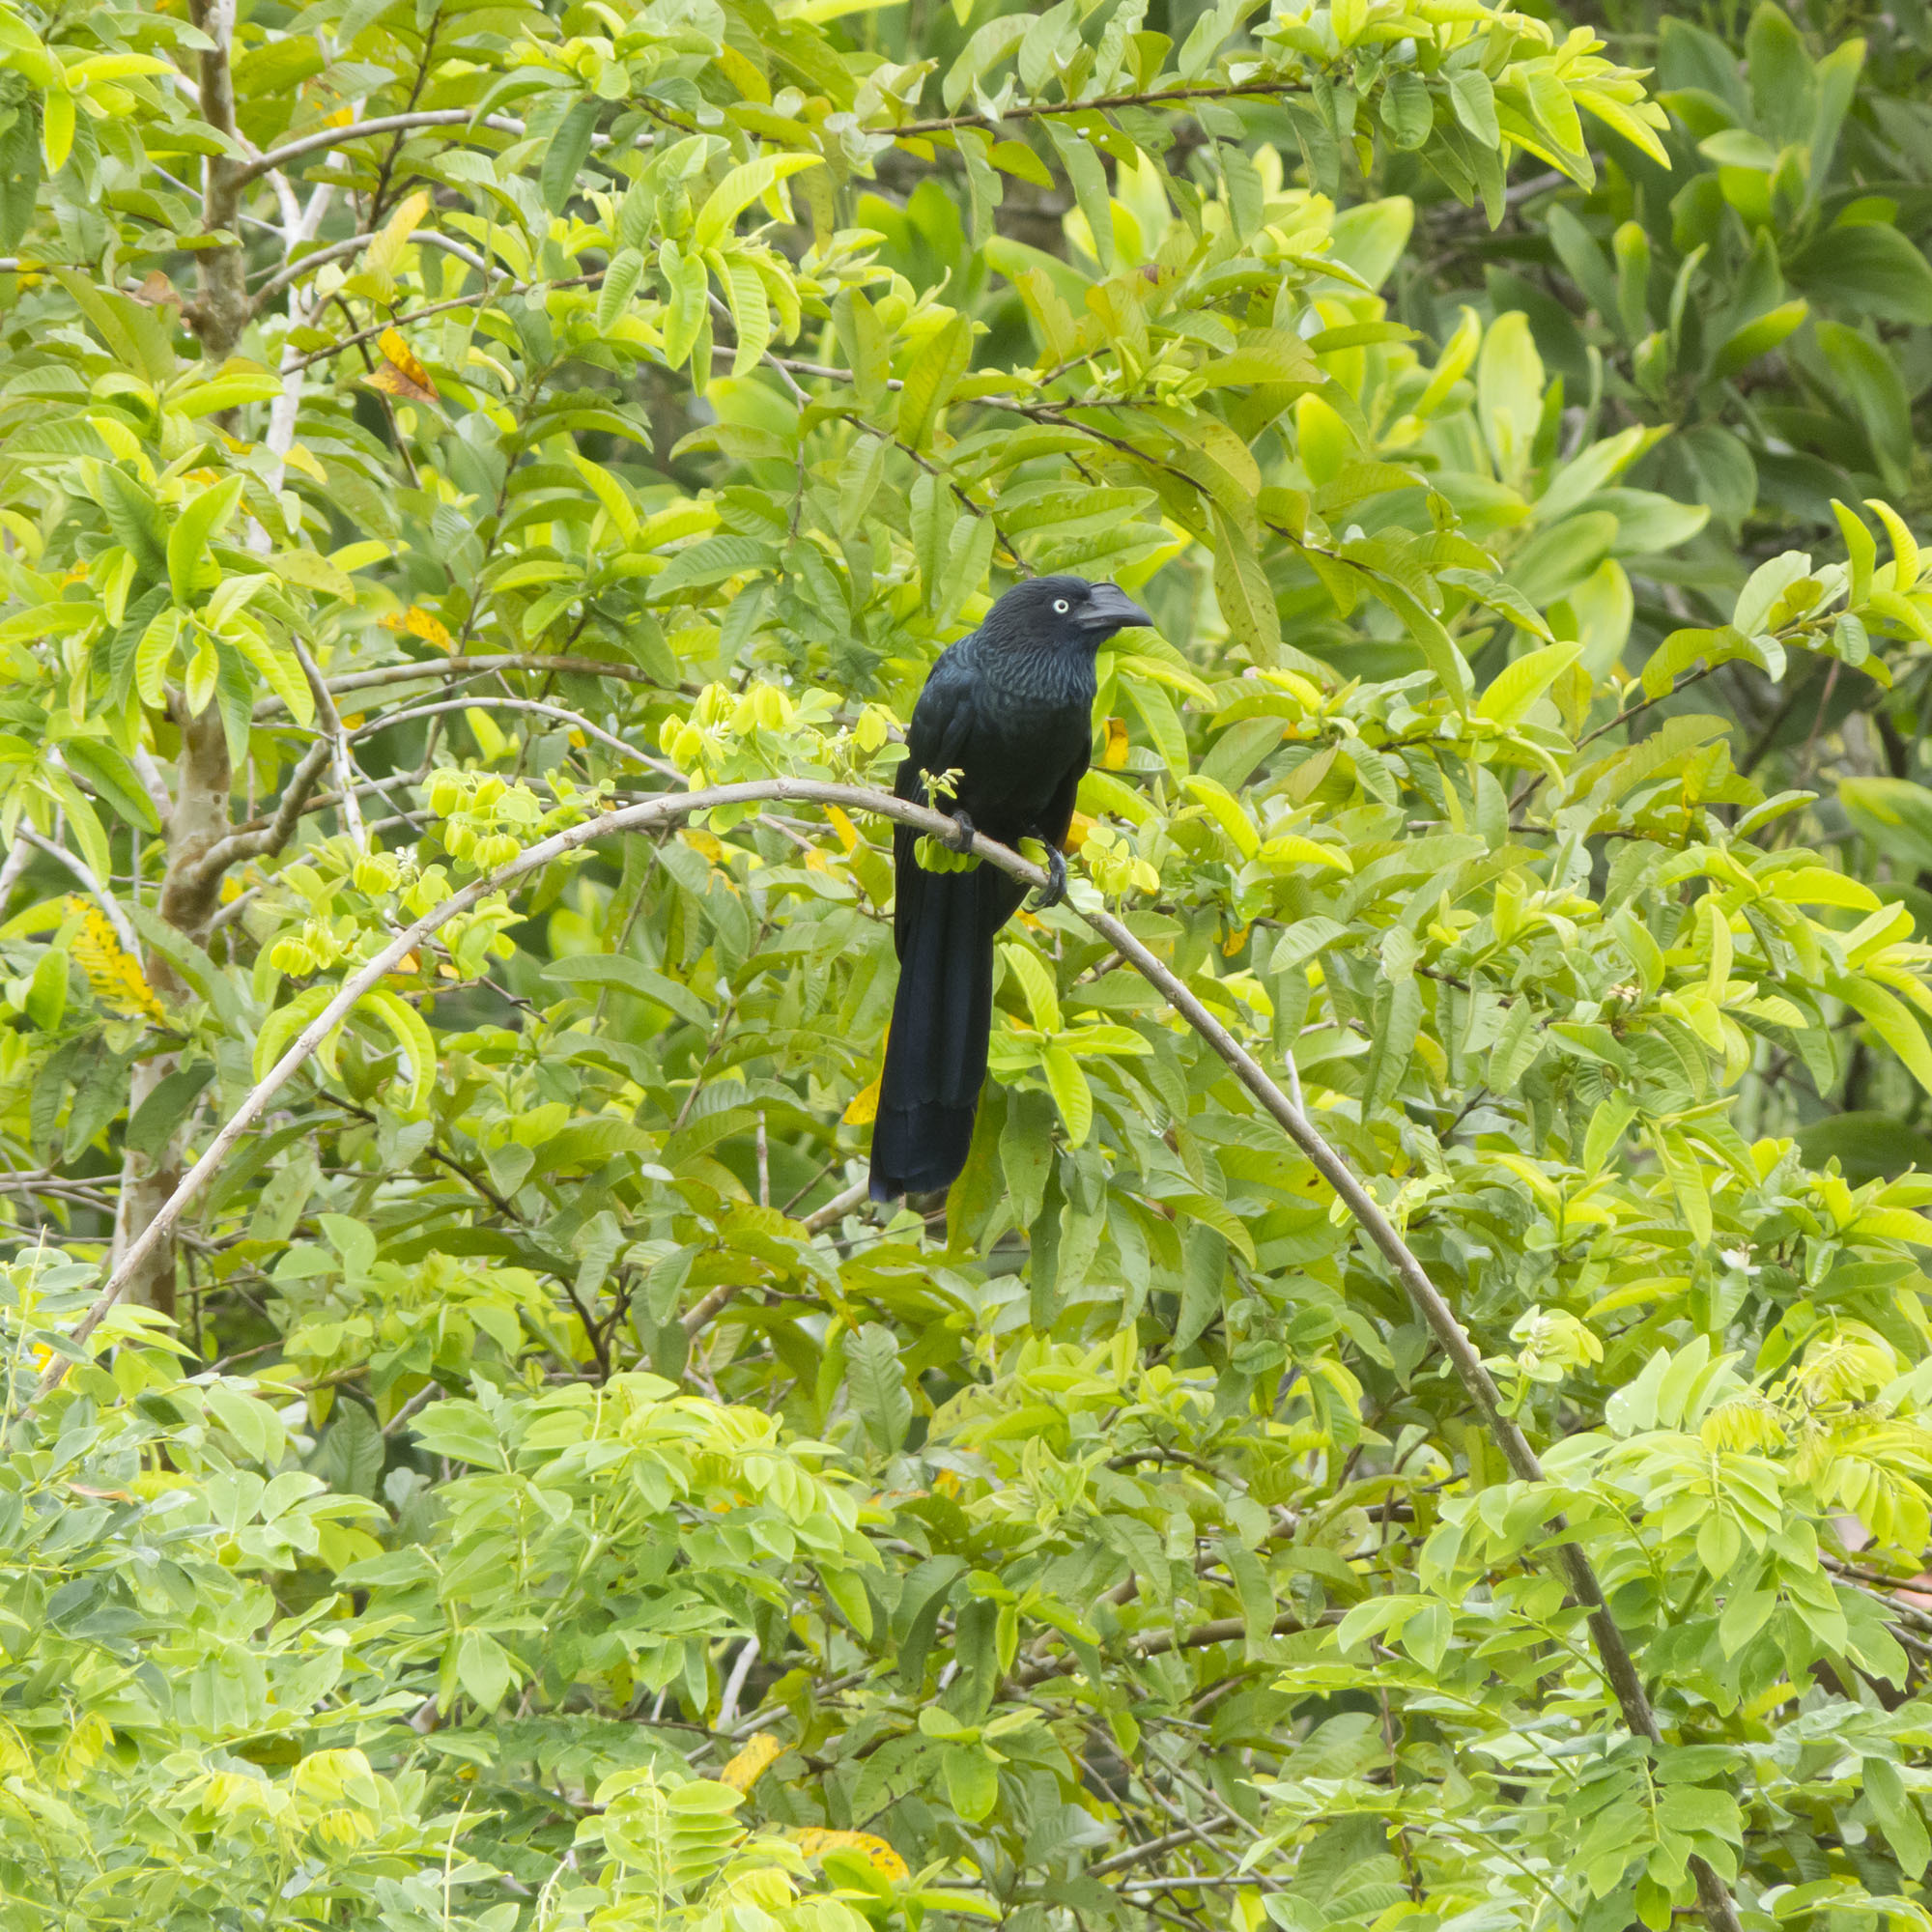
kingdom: Animalia
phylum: Chordata
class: Aves
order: Cuculiformes
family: Cuculidae
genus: Crotophaga
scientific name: Crotophaga major
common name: Greater ani
